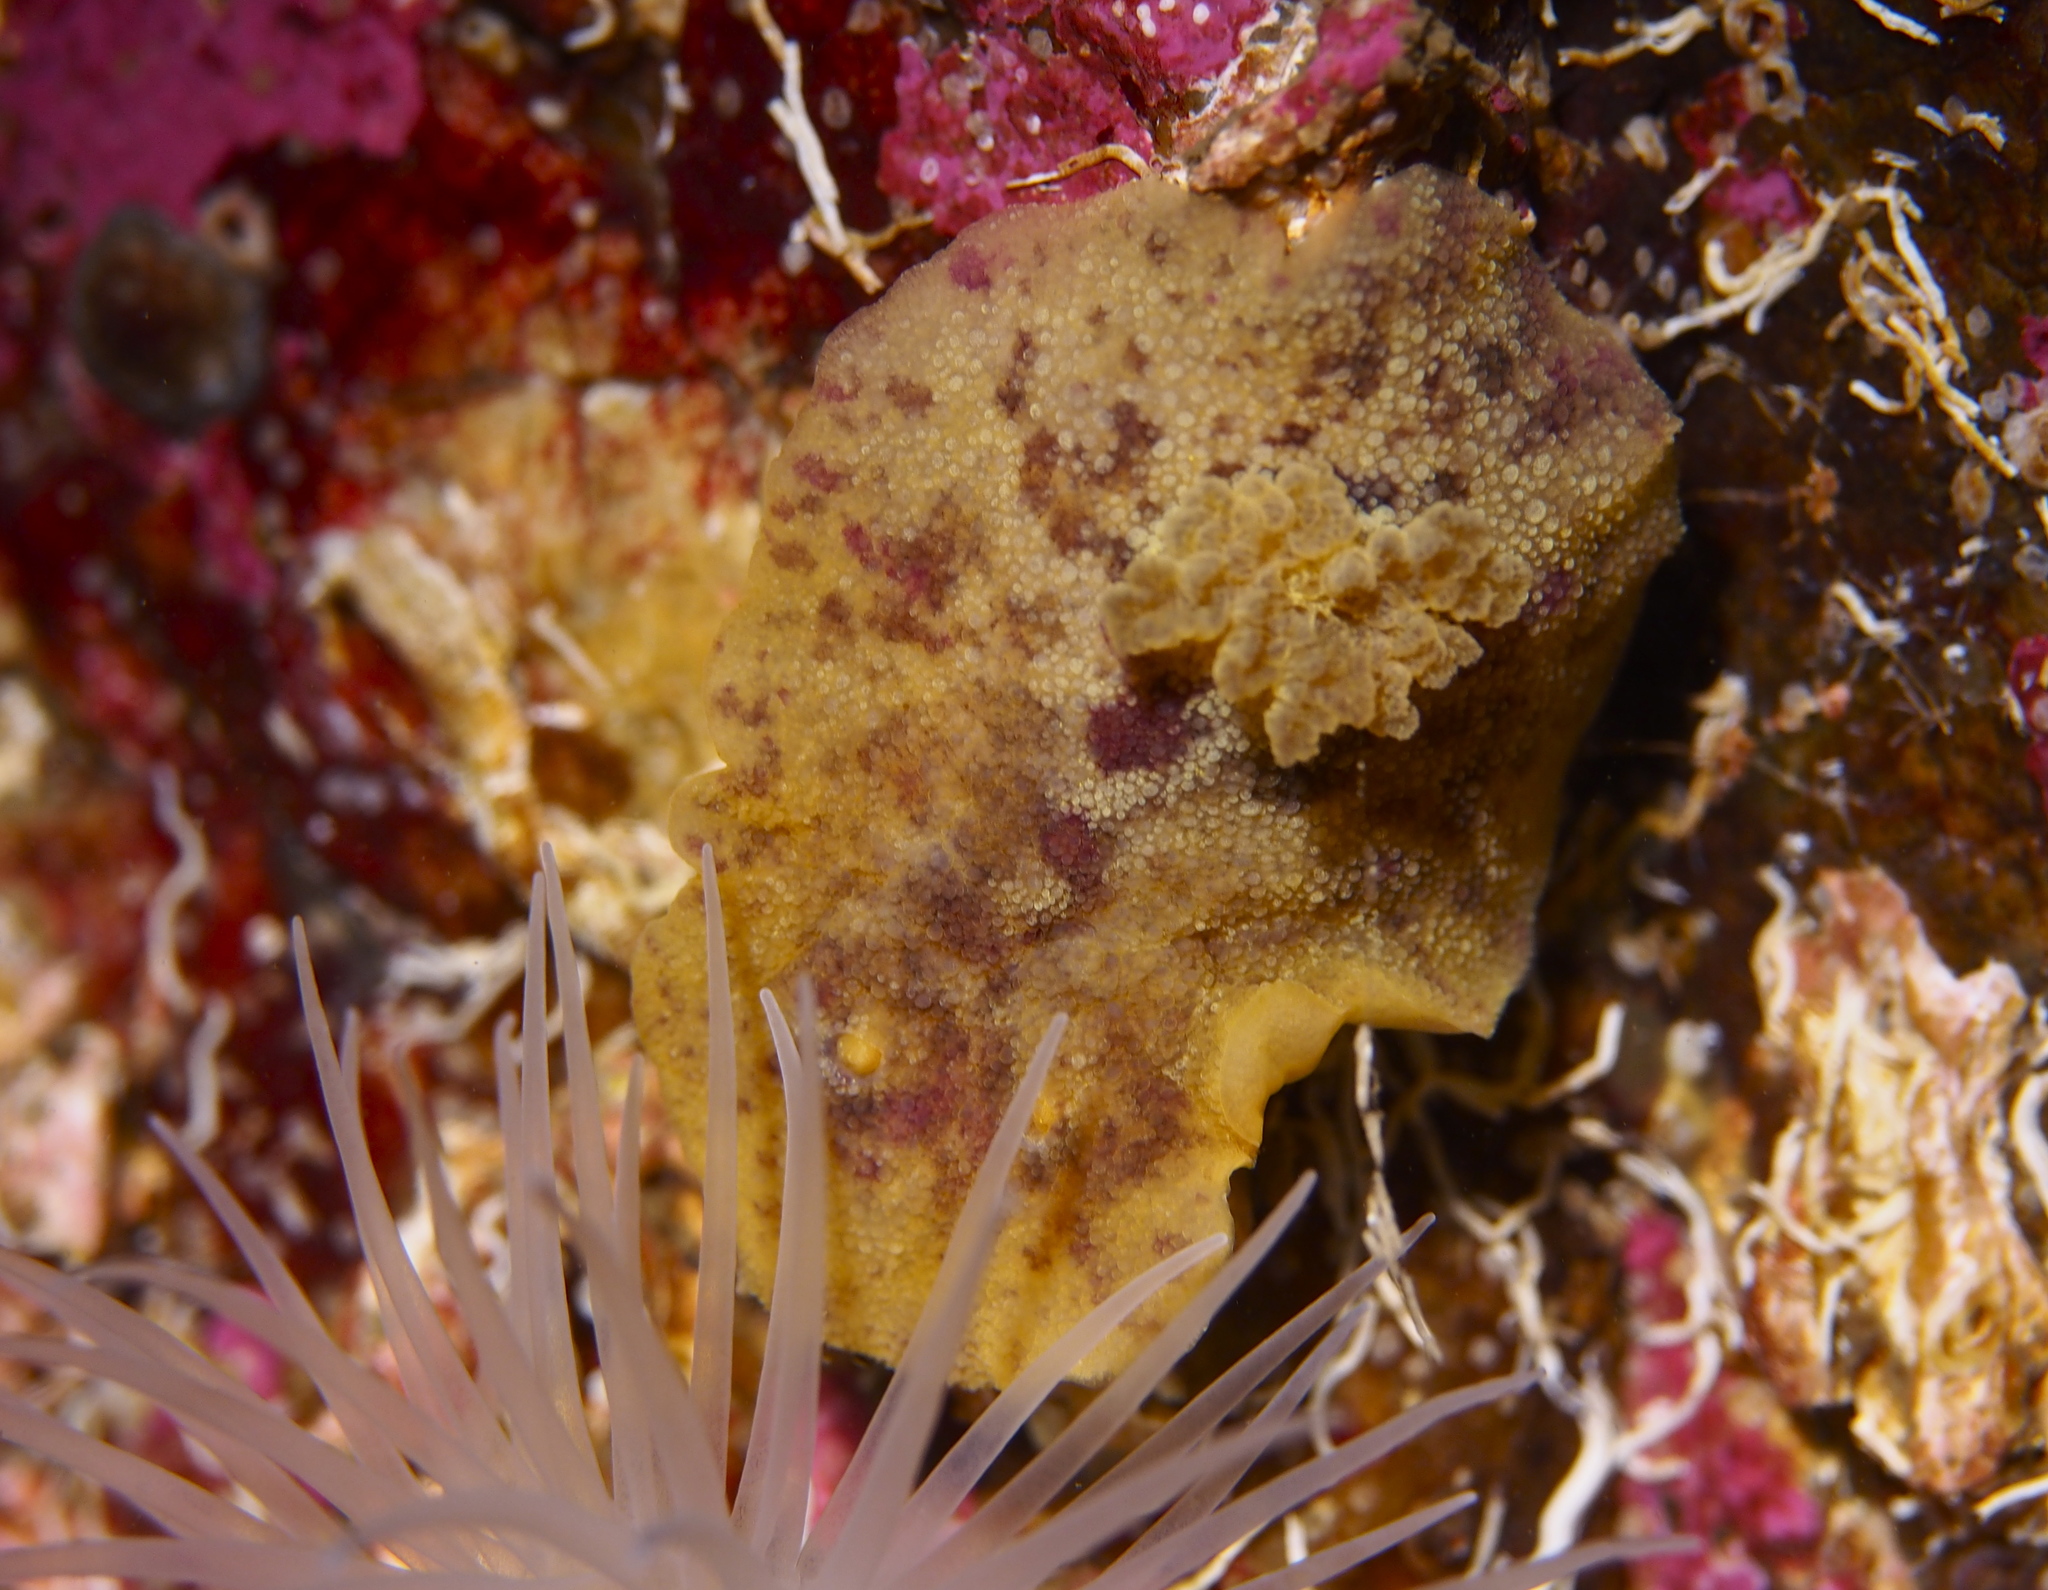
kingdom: Animalia
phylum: Mollusca
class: Gastropoda
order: Nudibranchia
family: Dorididae
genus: Doris
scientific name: Doris pseudoargus
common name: Sea lemon
